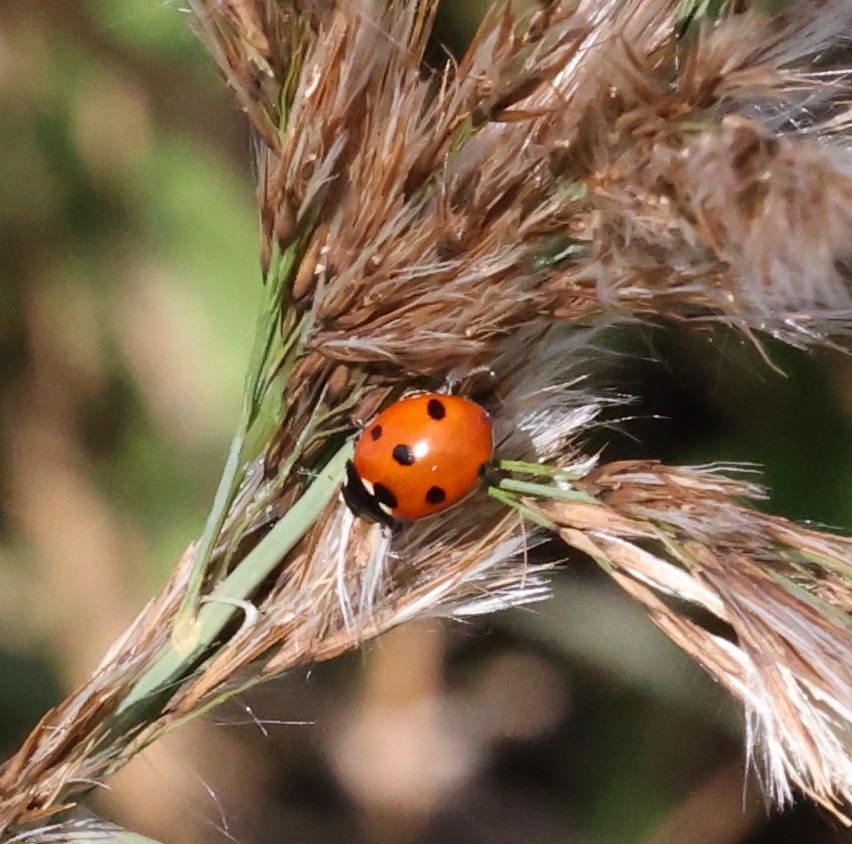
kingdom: Animalia
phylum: Arthropoda
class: Insecta
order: Coleoptera
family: Coccinellidae
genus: Coccinella
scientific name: Coccinella septempunctata
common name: Sevenspotted lady beetle
